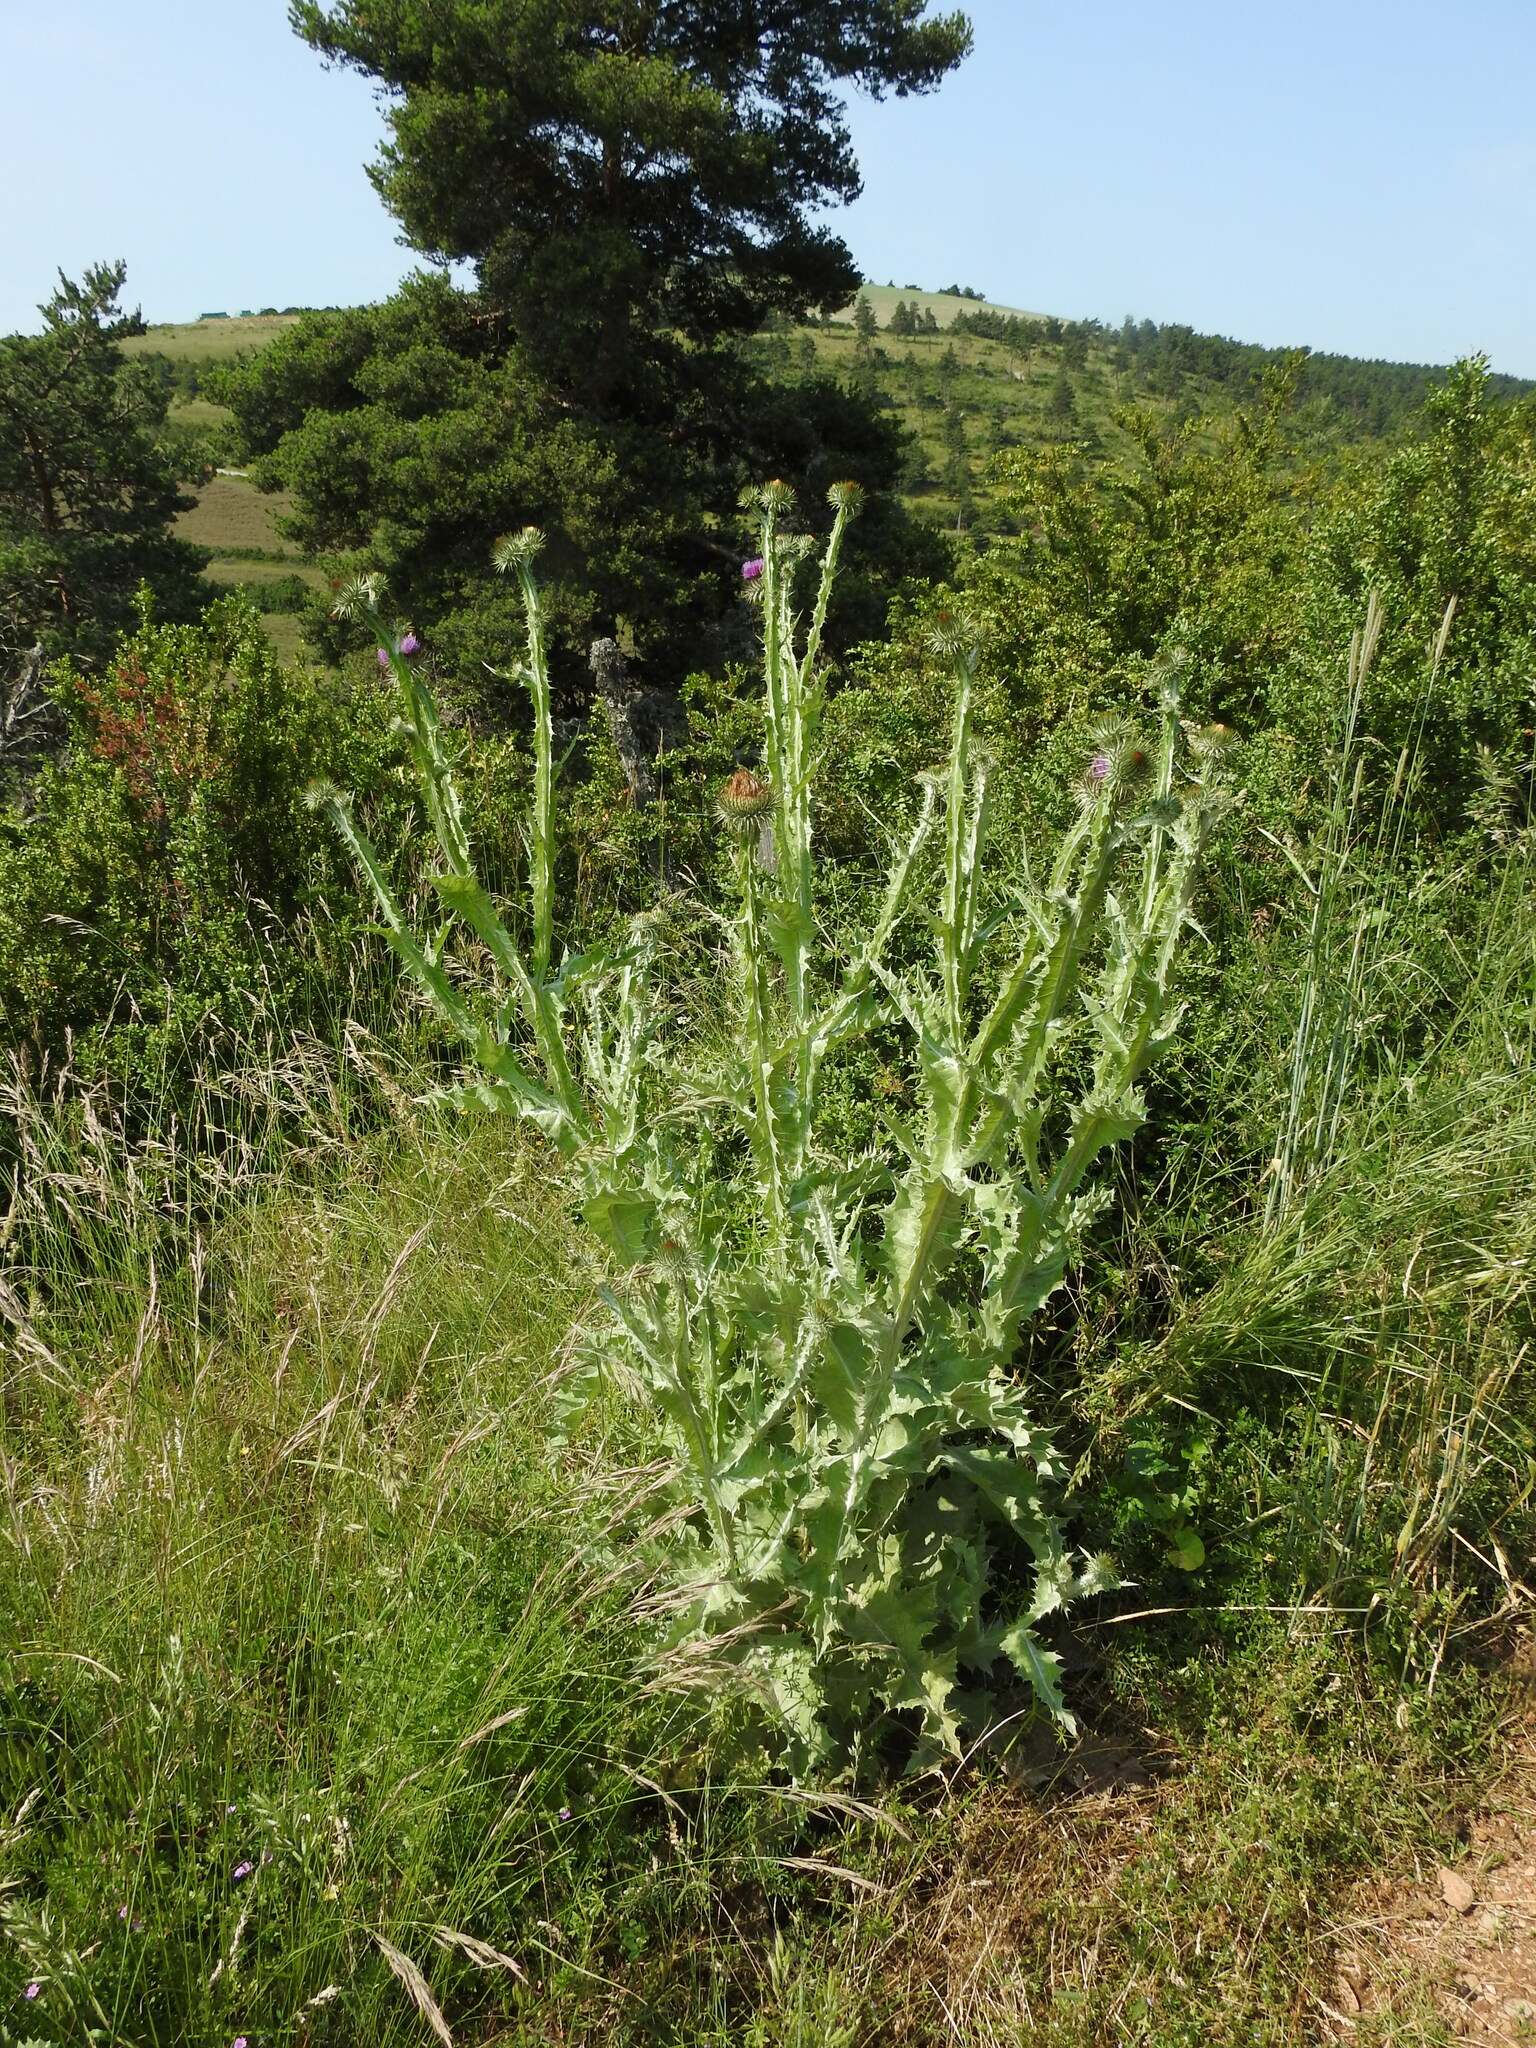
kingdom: Plantae
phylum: Tracheophyta
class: Magnoliopsida
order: Asterales
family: Asteraceae
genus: Onopordum
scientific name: Onopordum acanthium
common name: Scotch thistle
